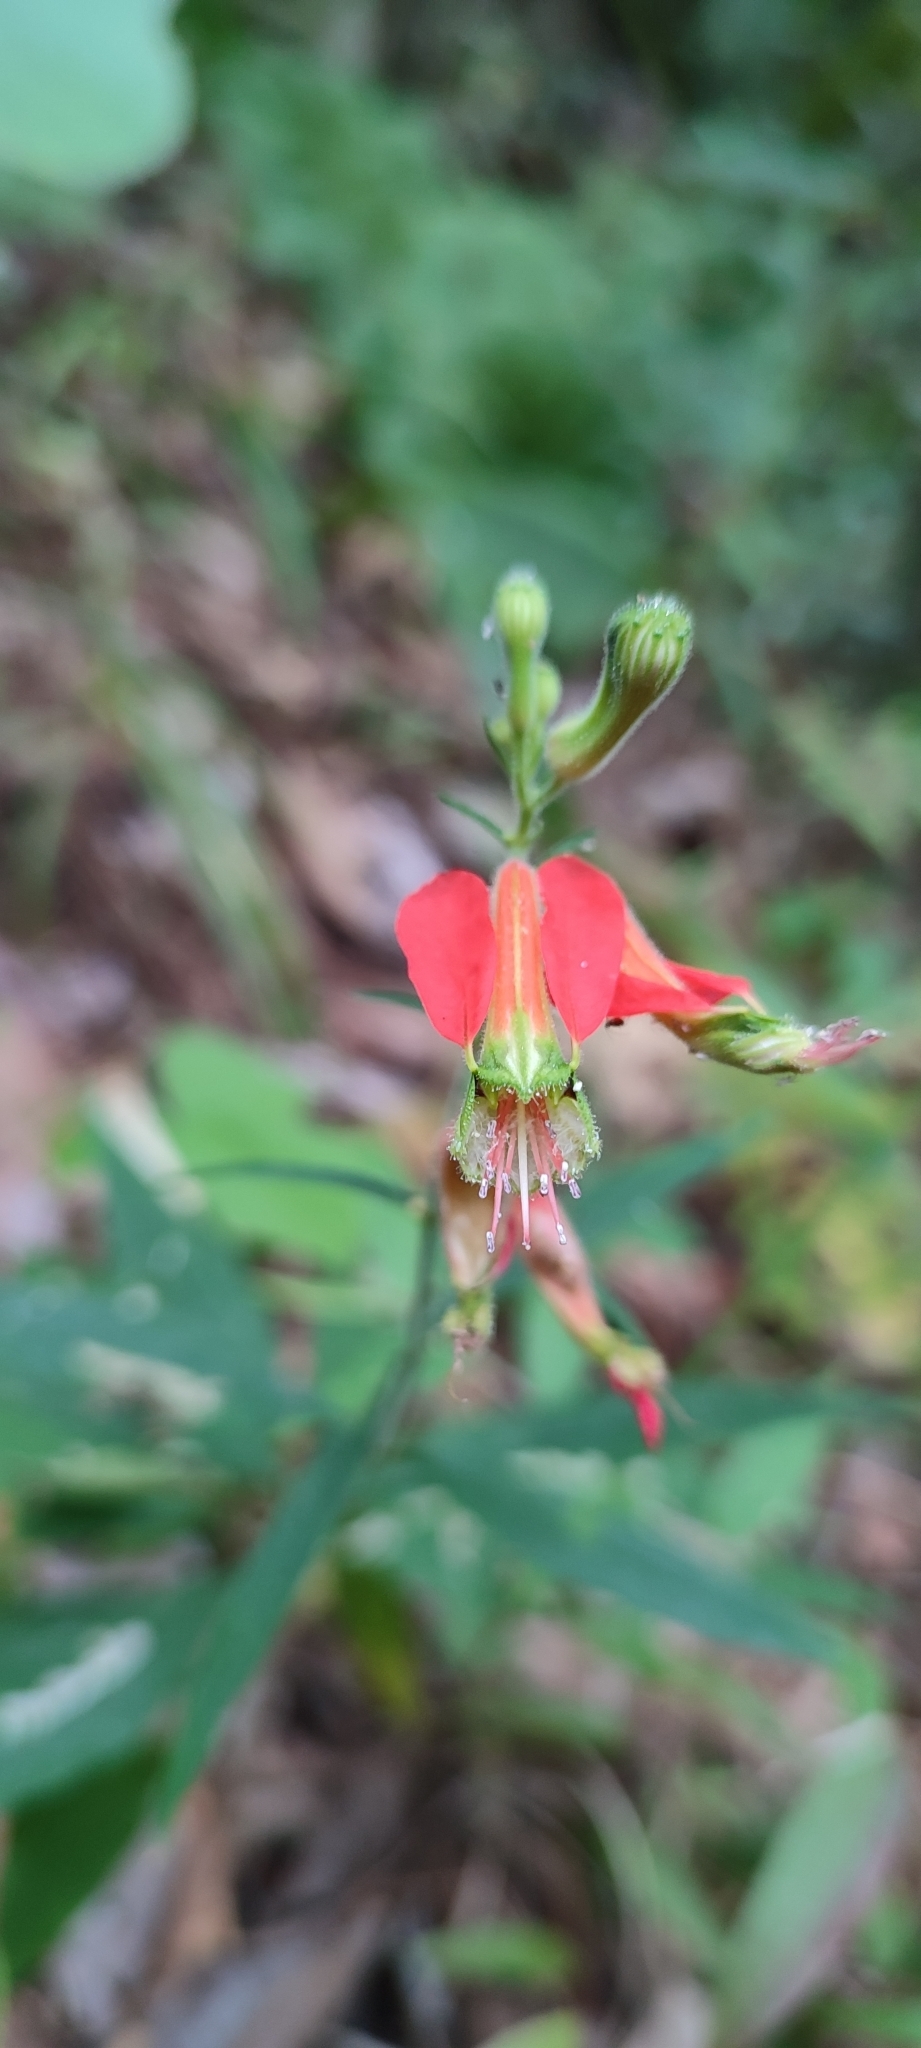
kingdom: Plantae
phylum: Tracheophyta
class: Magnoliopsida
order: Myrtales
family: Lythraceae
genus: Cuphea
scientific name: Cuphea hookeriana
